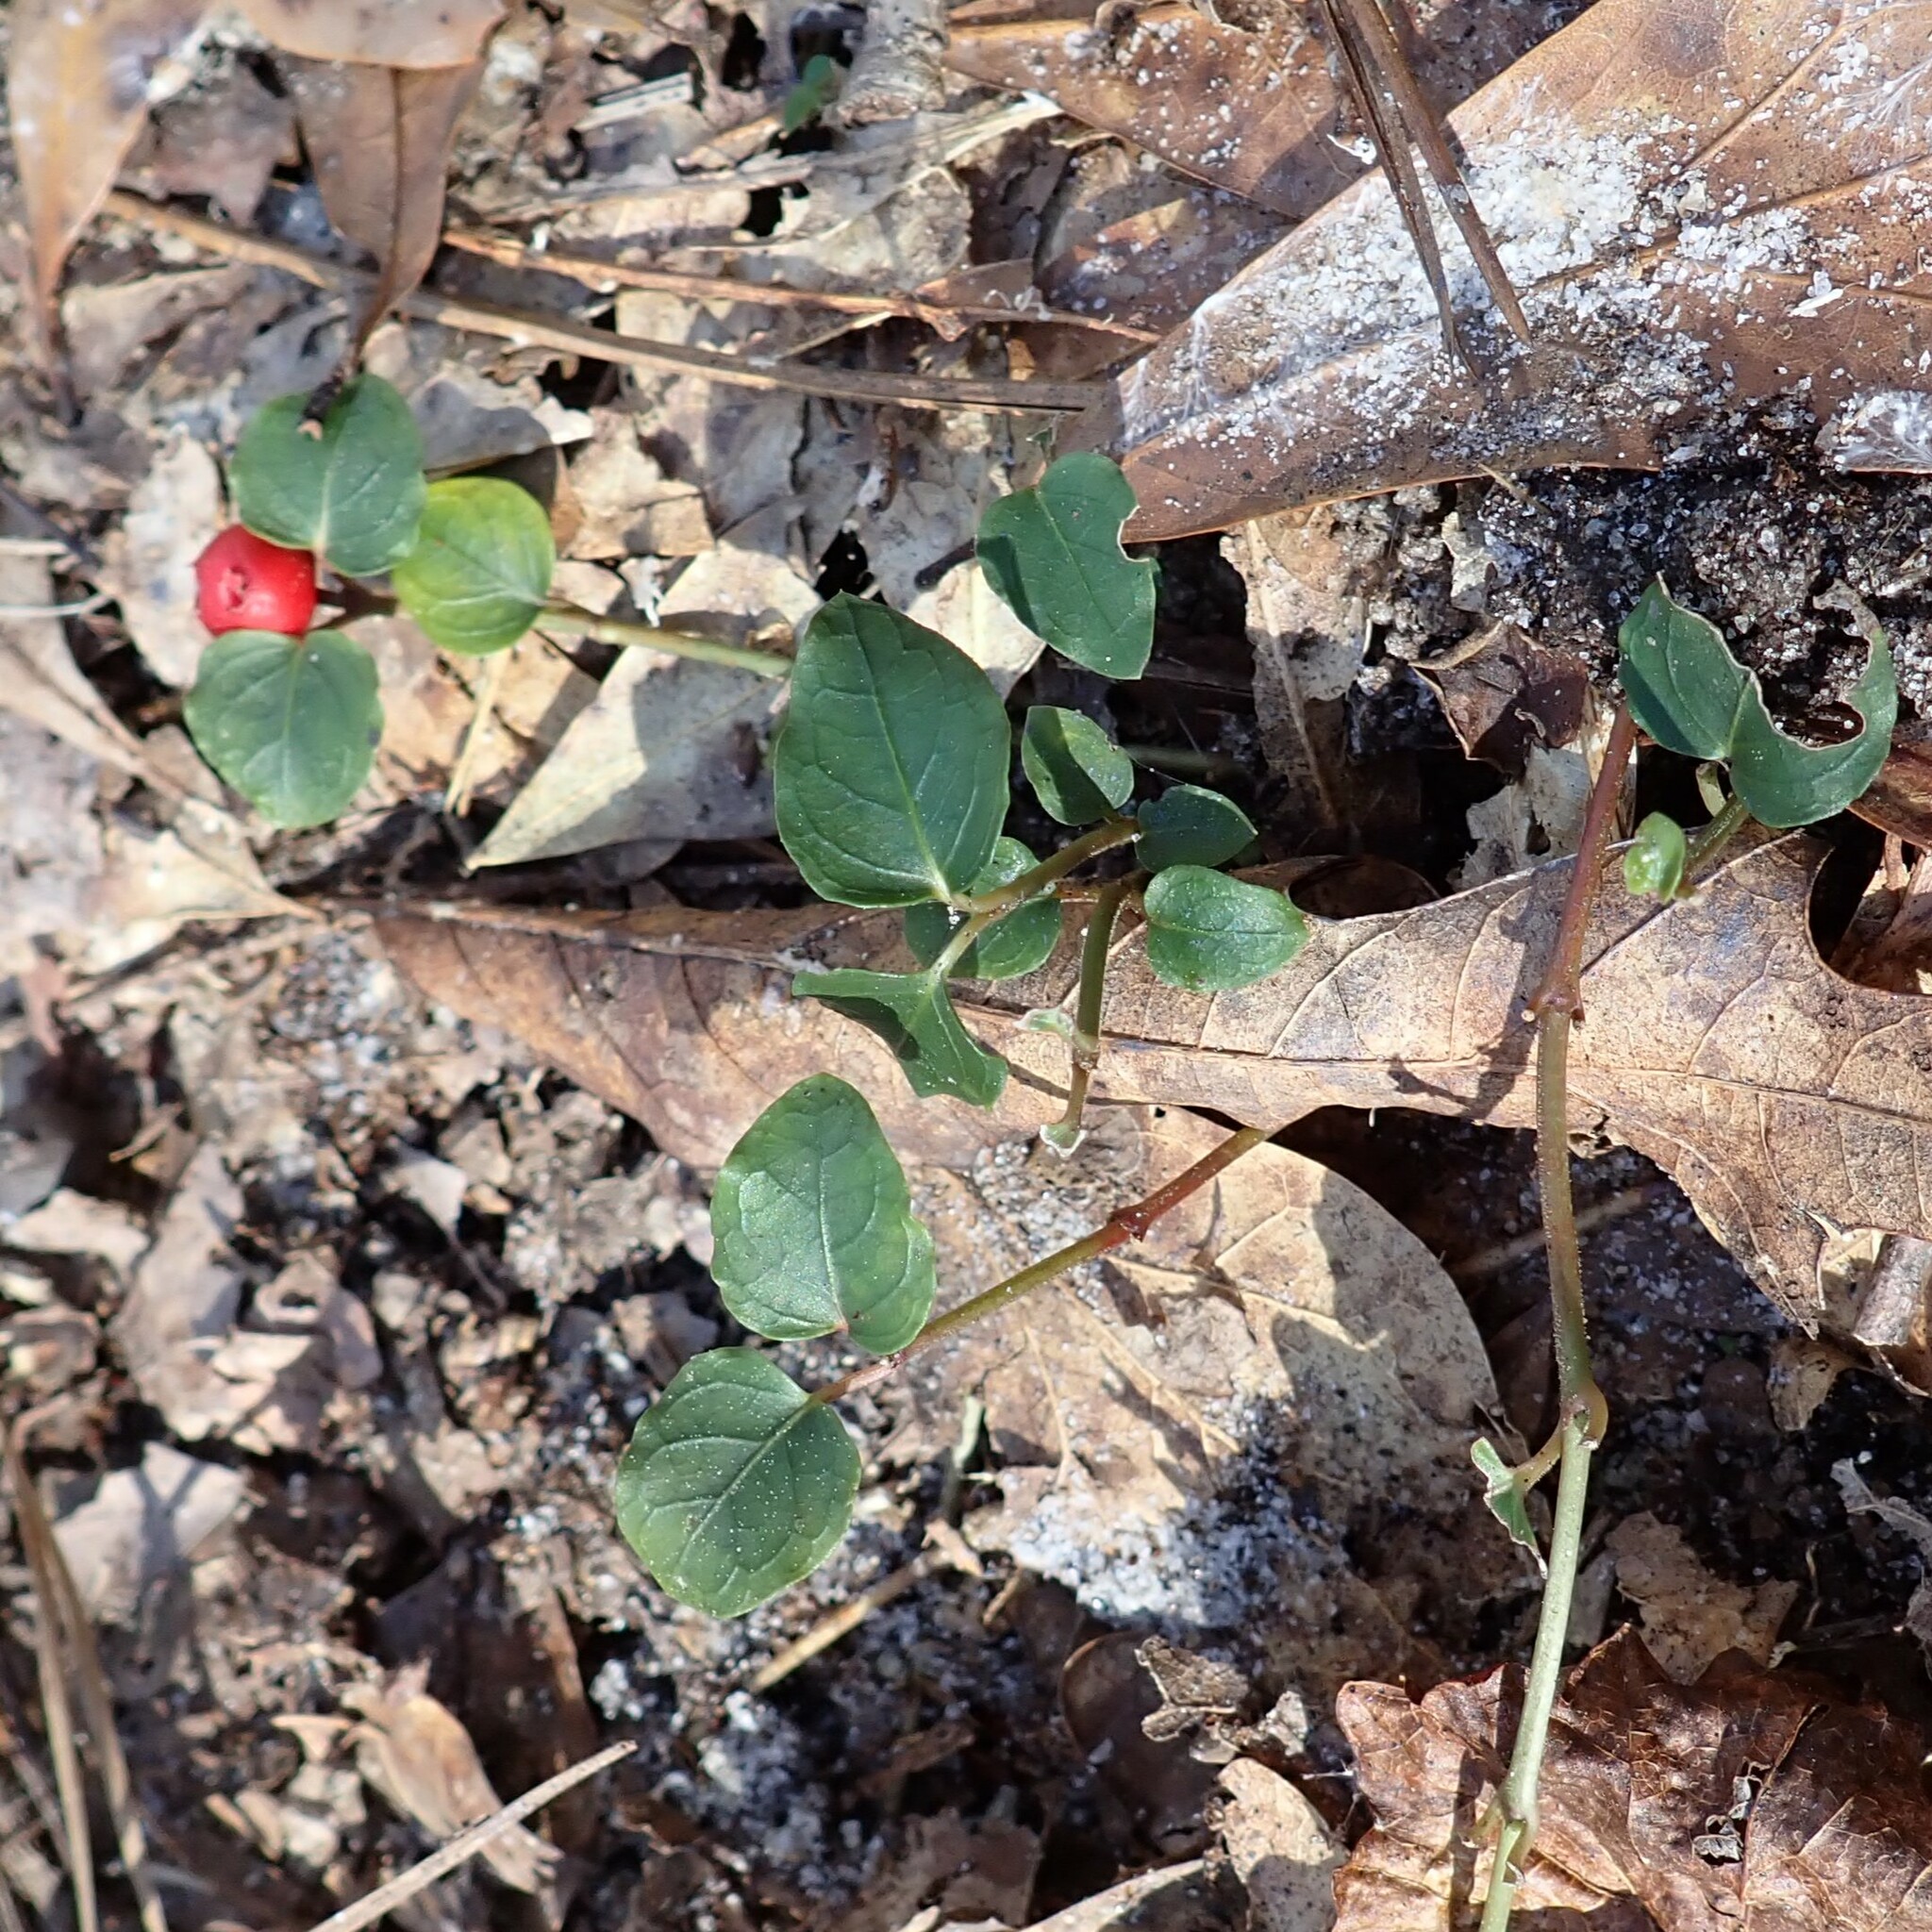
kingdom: Plantae
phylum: Tracheophyta
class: Magnoliopsida
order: Gentianales
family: Rubiaceae
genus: Mitchella
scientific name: Mitchella repens
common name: Partridge-berry
